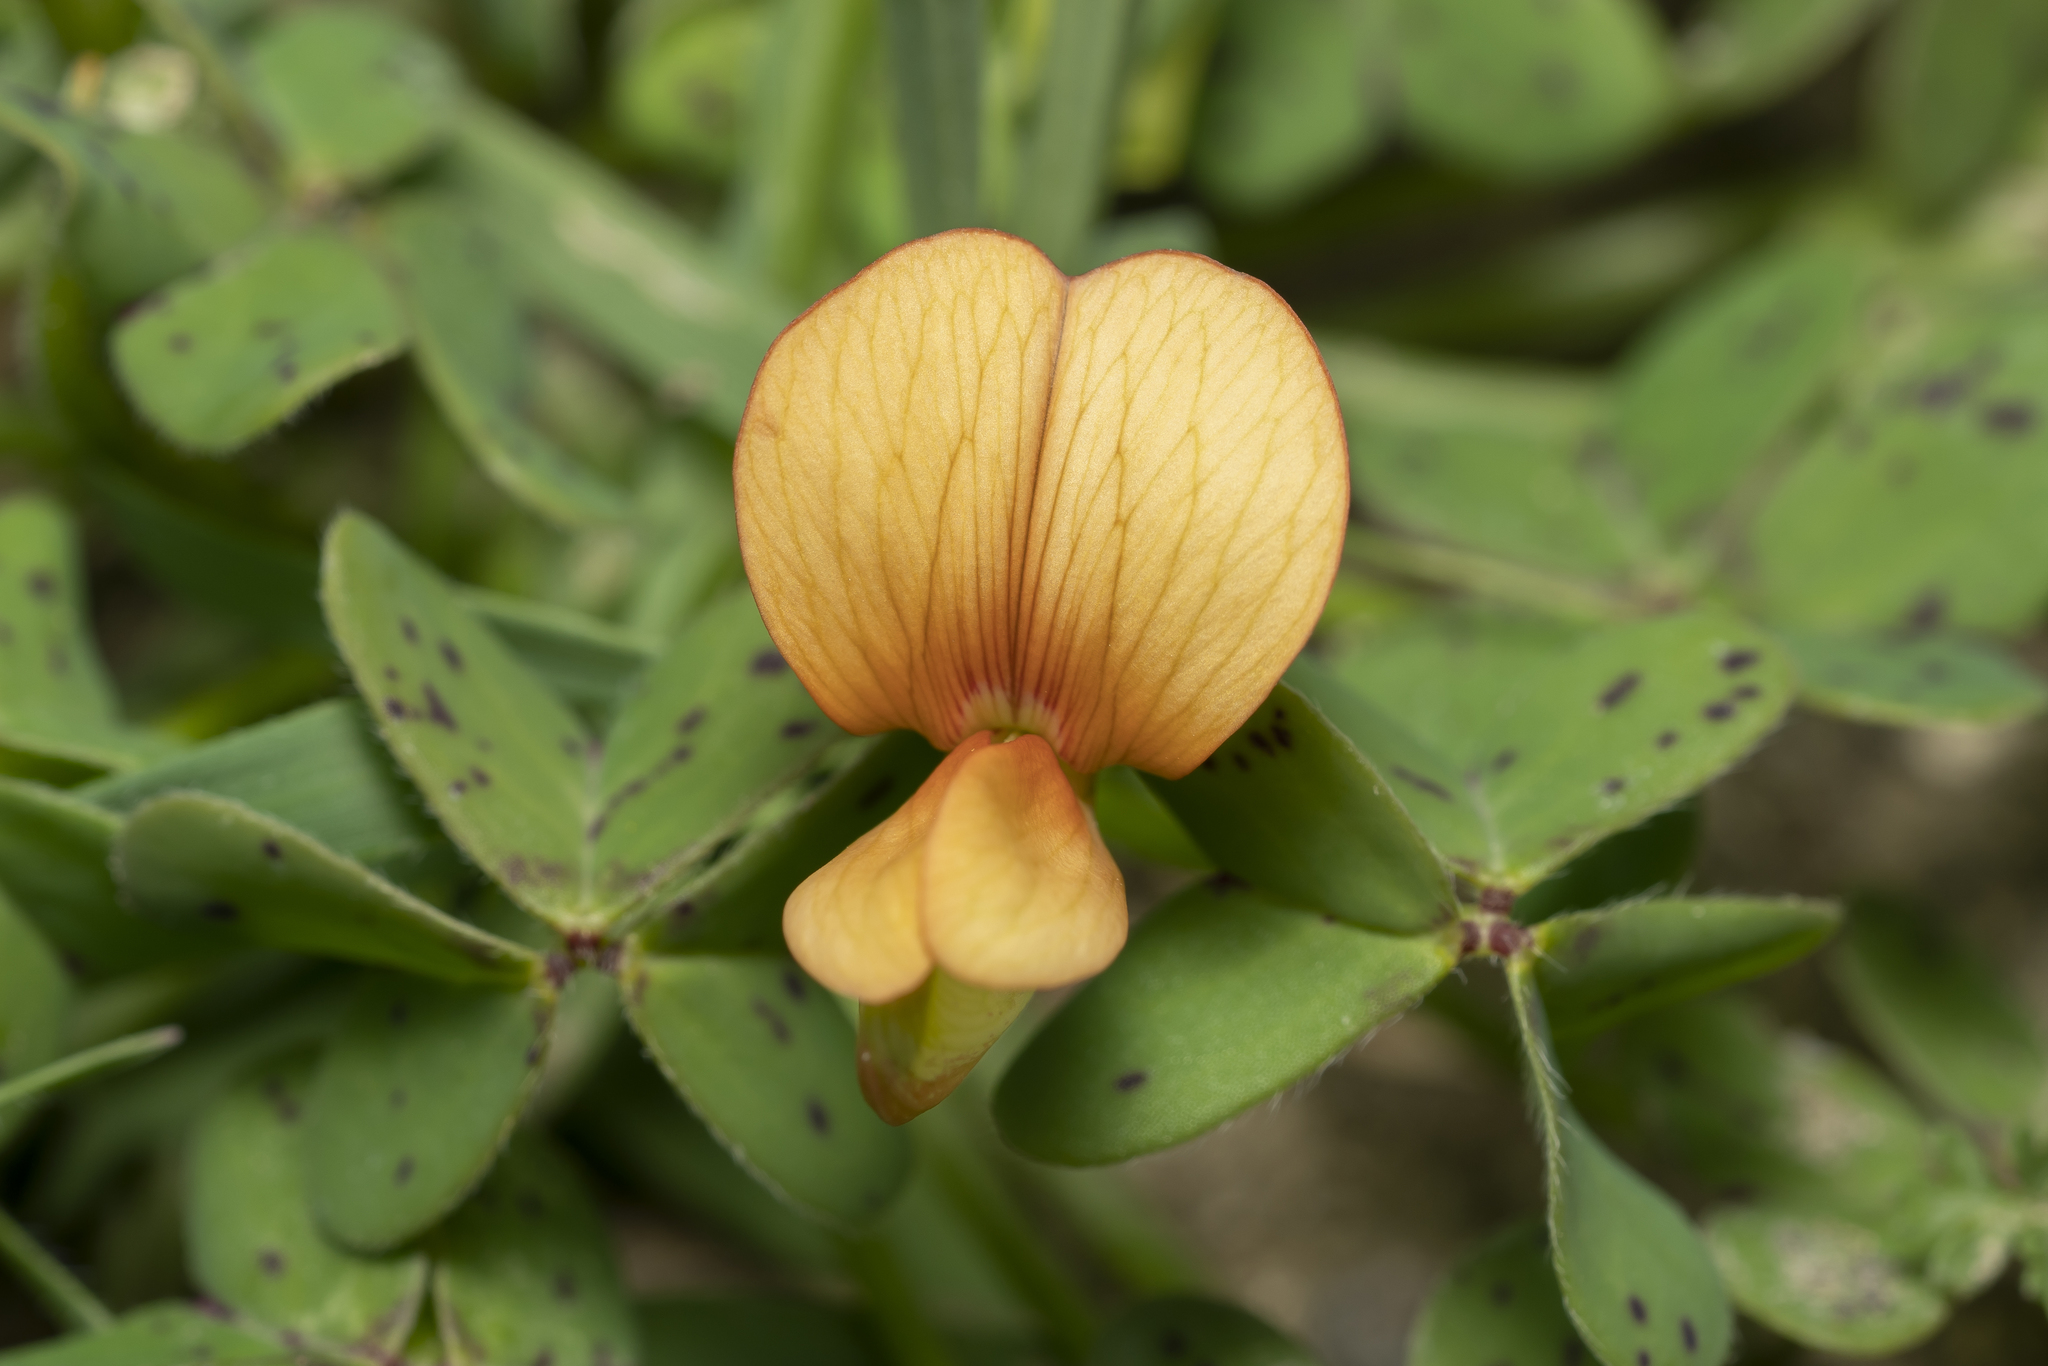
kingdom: Plantae
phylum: Tracheophyta
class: Magnoliopsida
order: Fabales
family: Fabaceae
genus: Lathyrus
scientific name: Lathyrus gorgoni
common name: Rare pea
